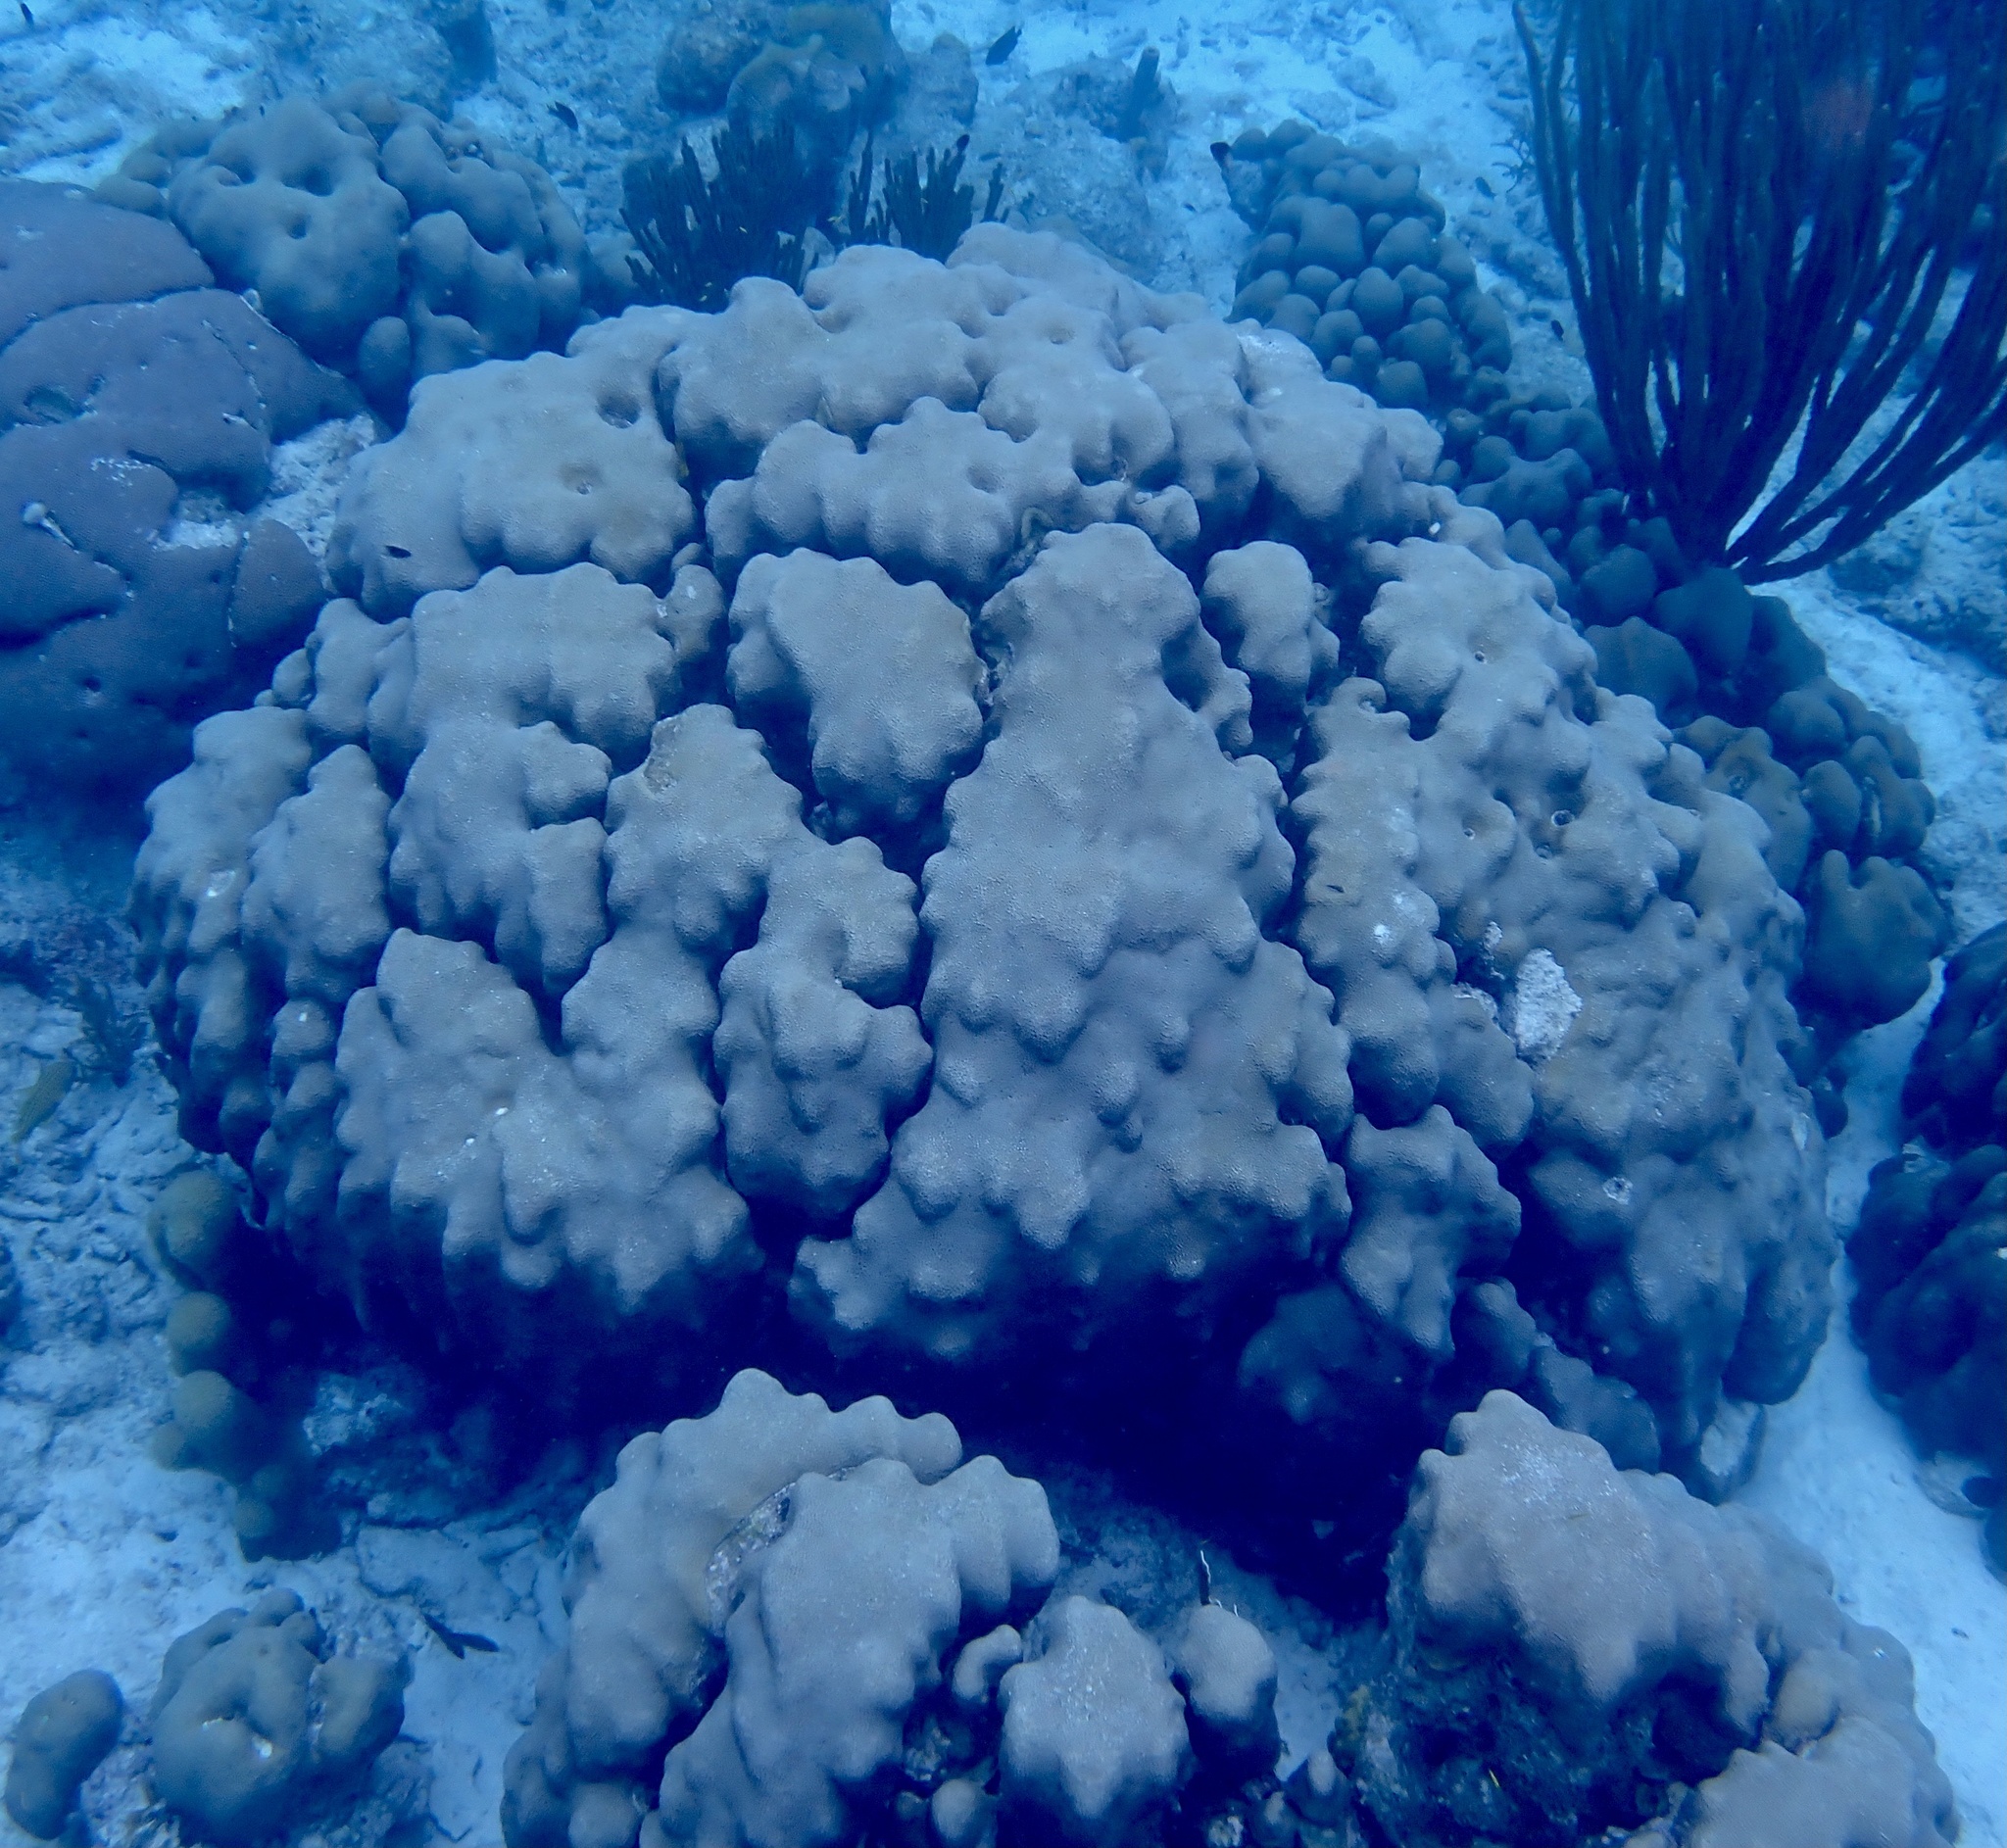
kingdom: Animalia
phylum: Cnidaria
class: Anthozoa
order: Scleractinia
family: Merulinidae
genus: Orbicella
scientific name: Orbicella annularis
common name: Boulder star coral
